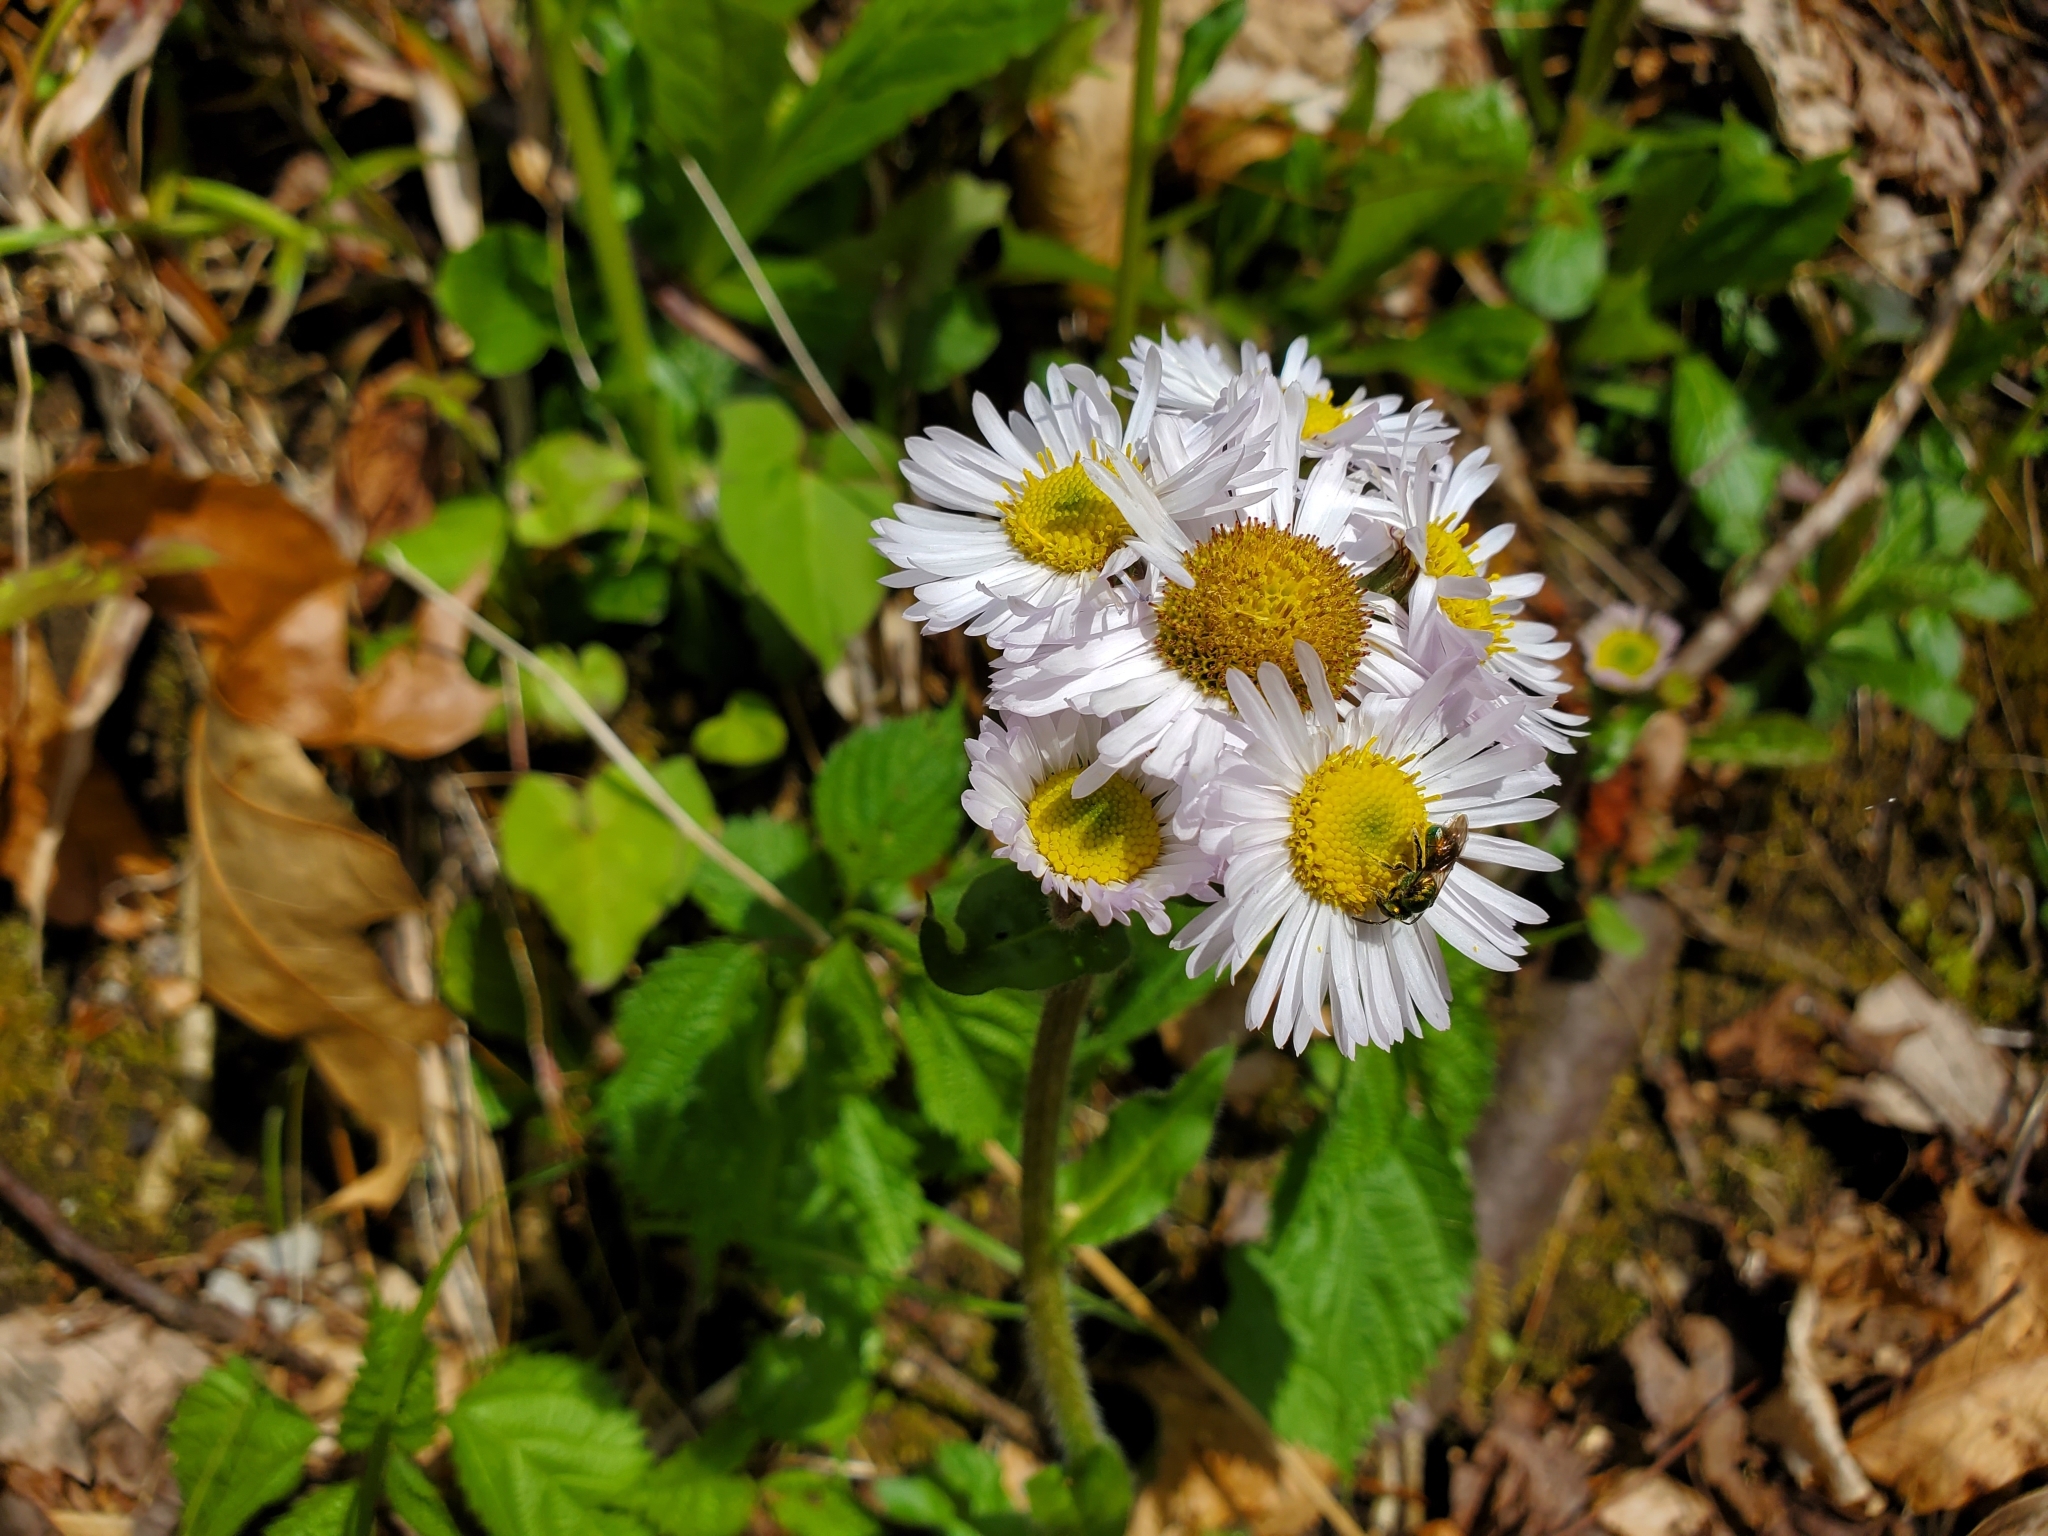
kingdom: Plantae
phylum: Tracheophyta
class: Magnoliopsida
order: Asterales
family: Asteraceae
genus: Erigeron
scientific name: Erigeron pulchellus
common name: Hairy fleabane
